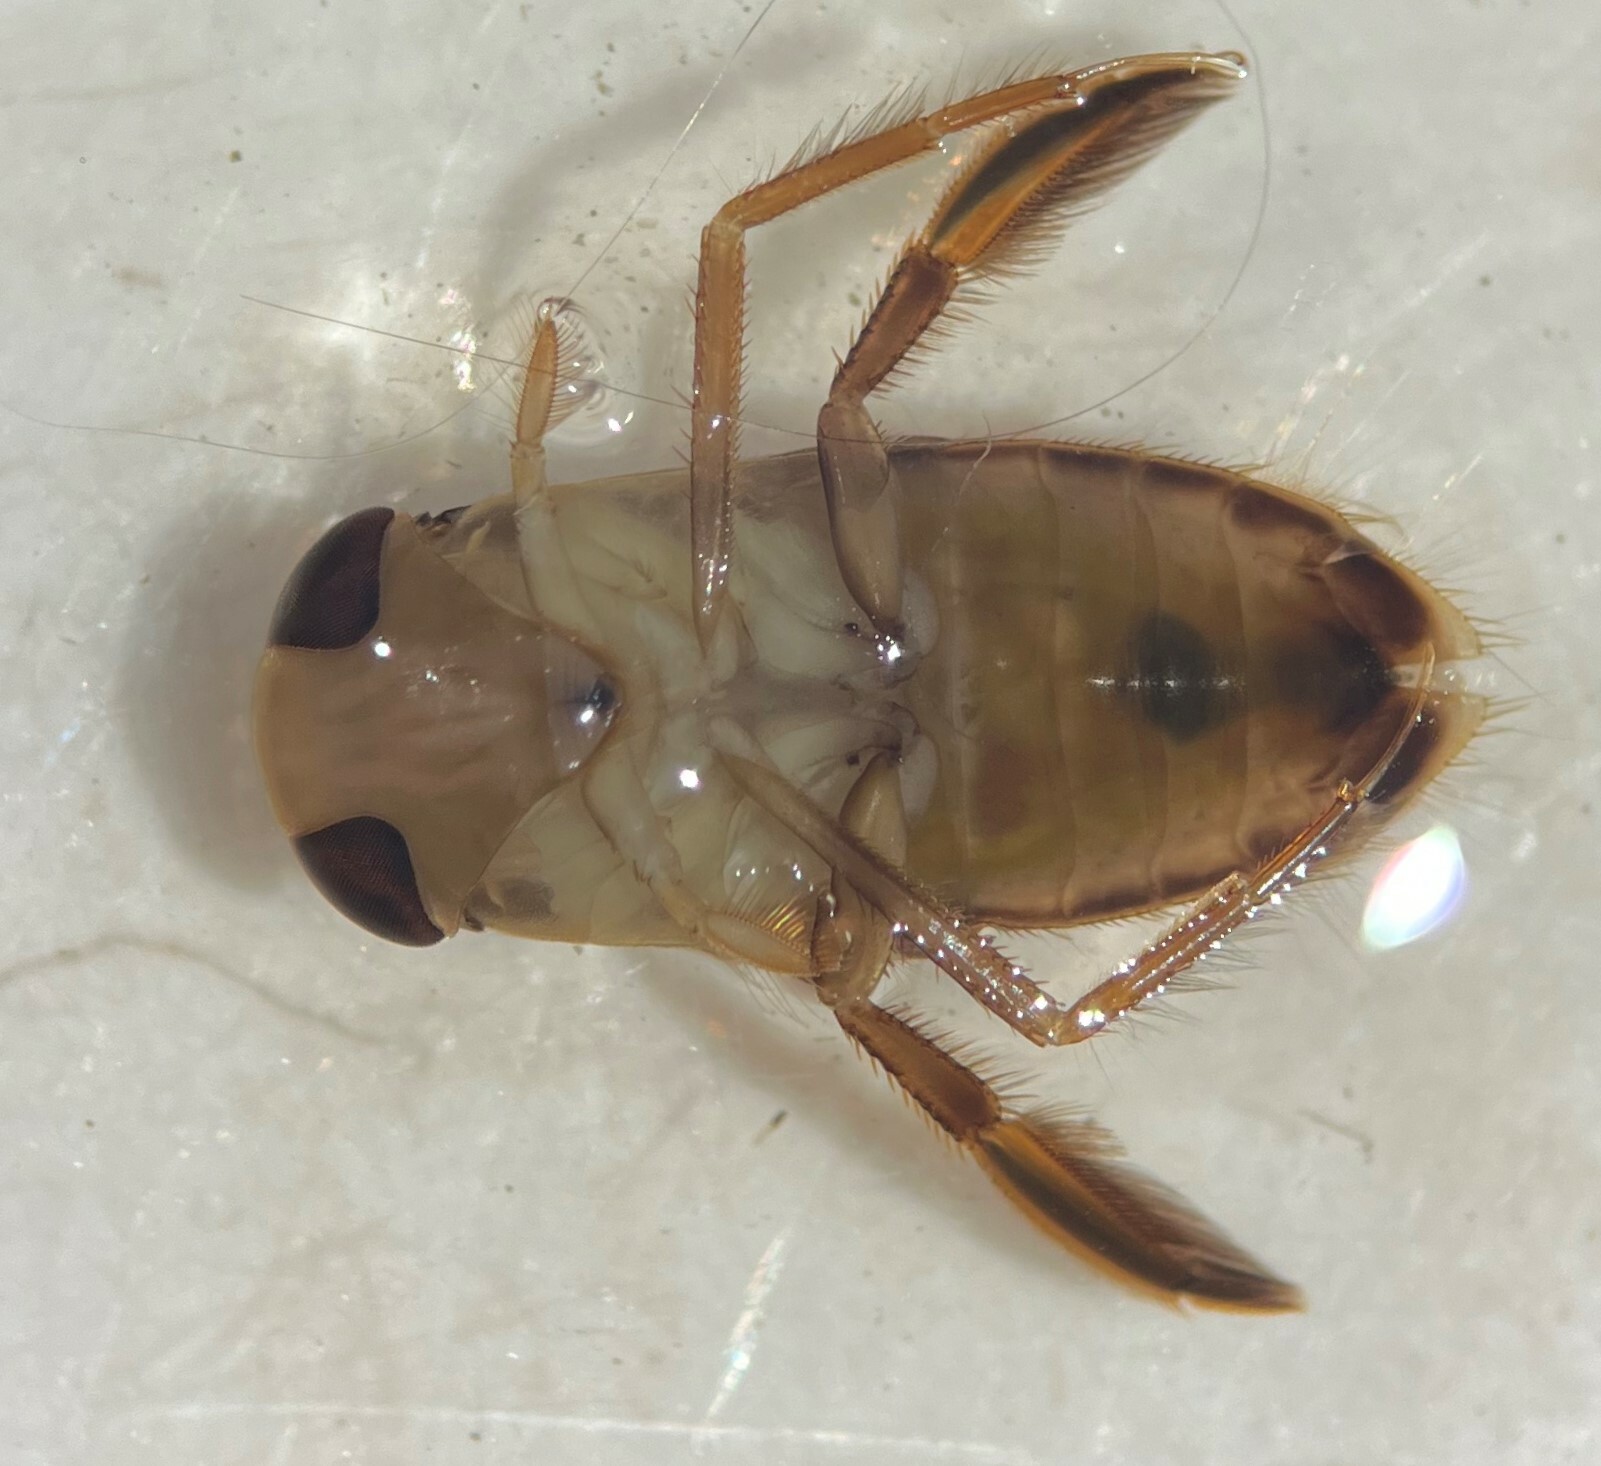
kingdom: Animalia
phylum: Arthropoda
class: Insecta
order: Hemiptera
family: Corixidae
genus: Centrocorisa
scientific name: Centrocorisa nigripennis
